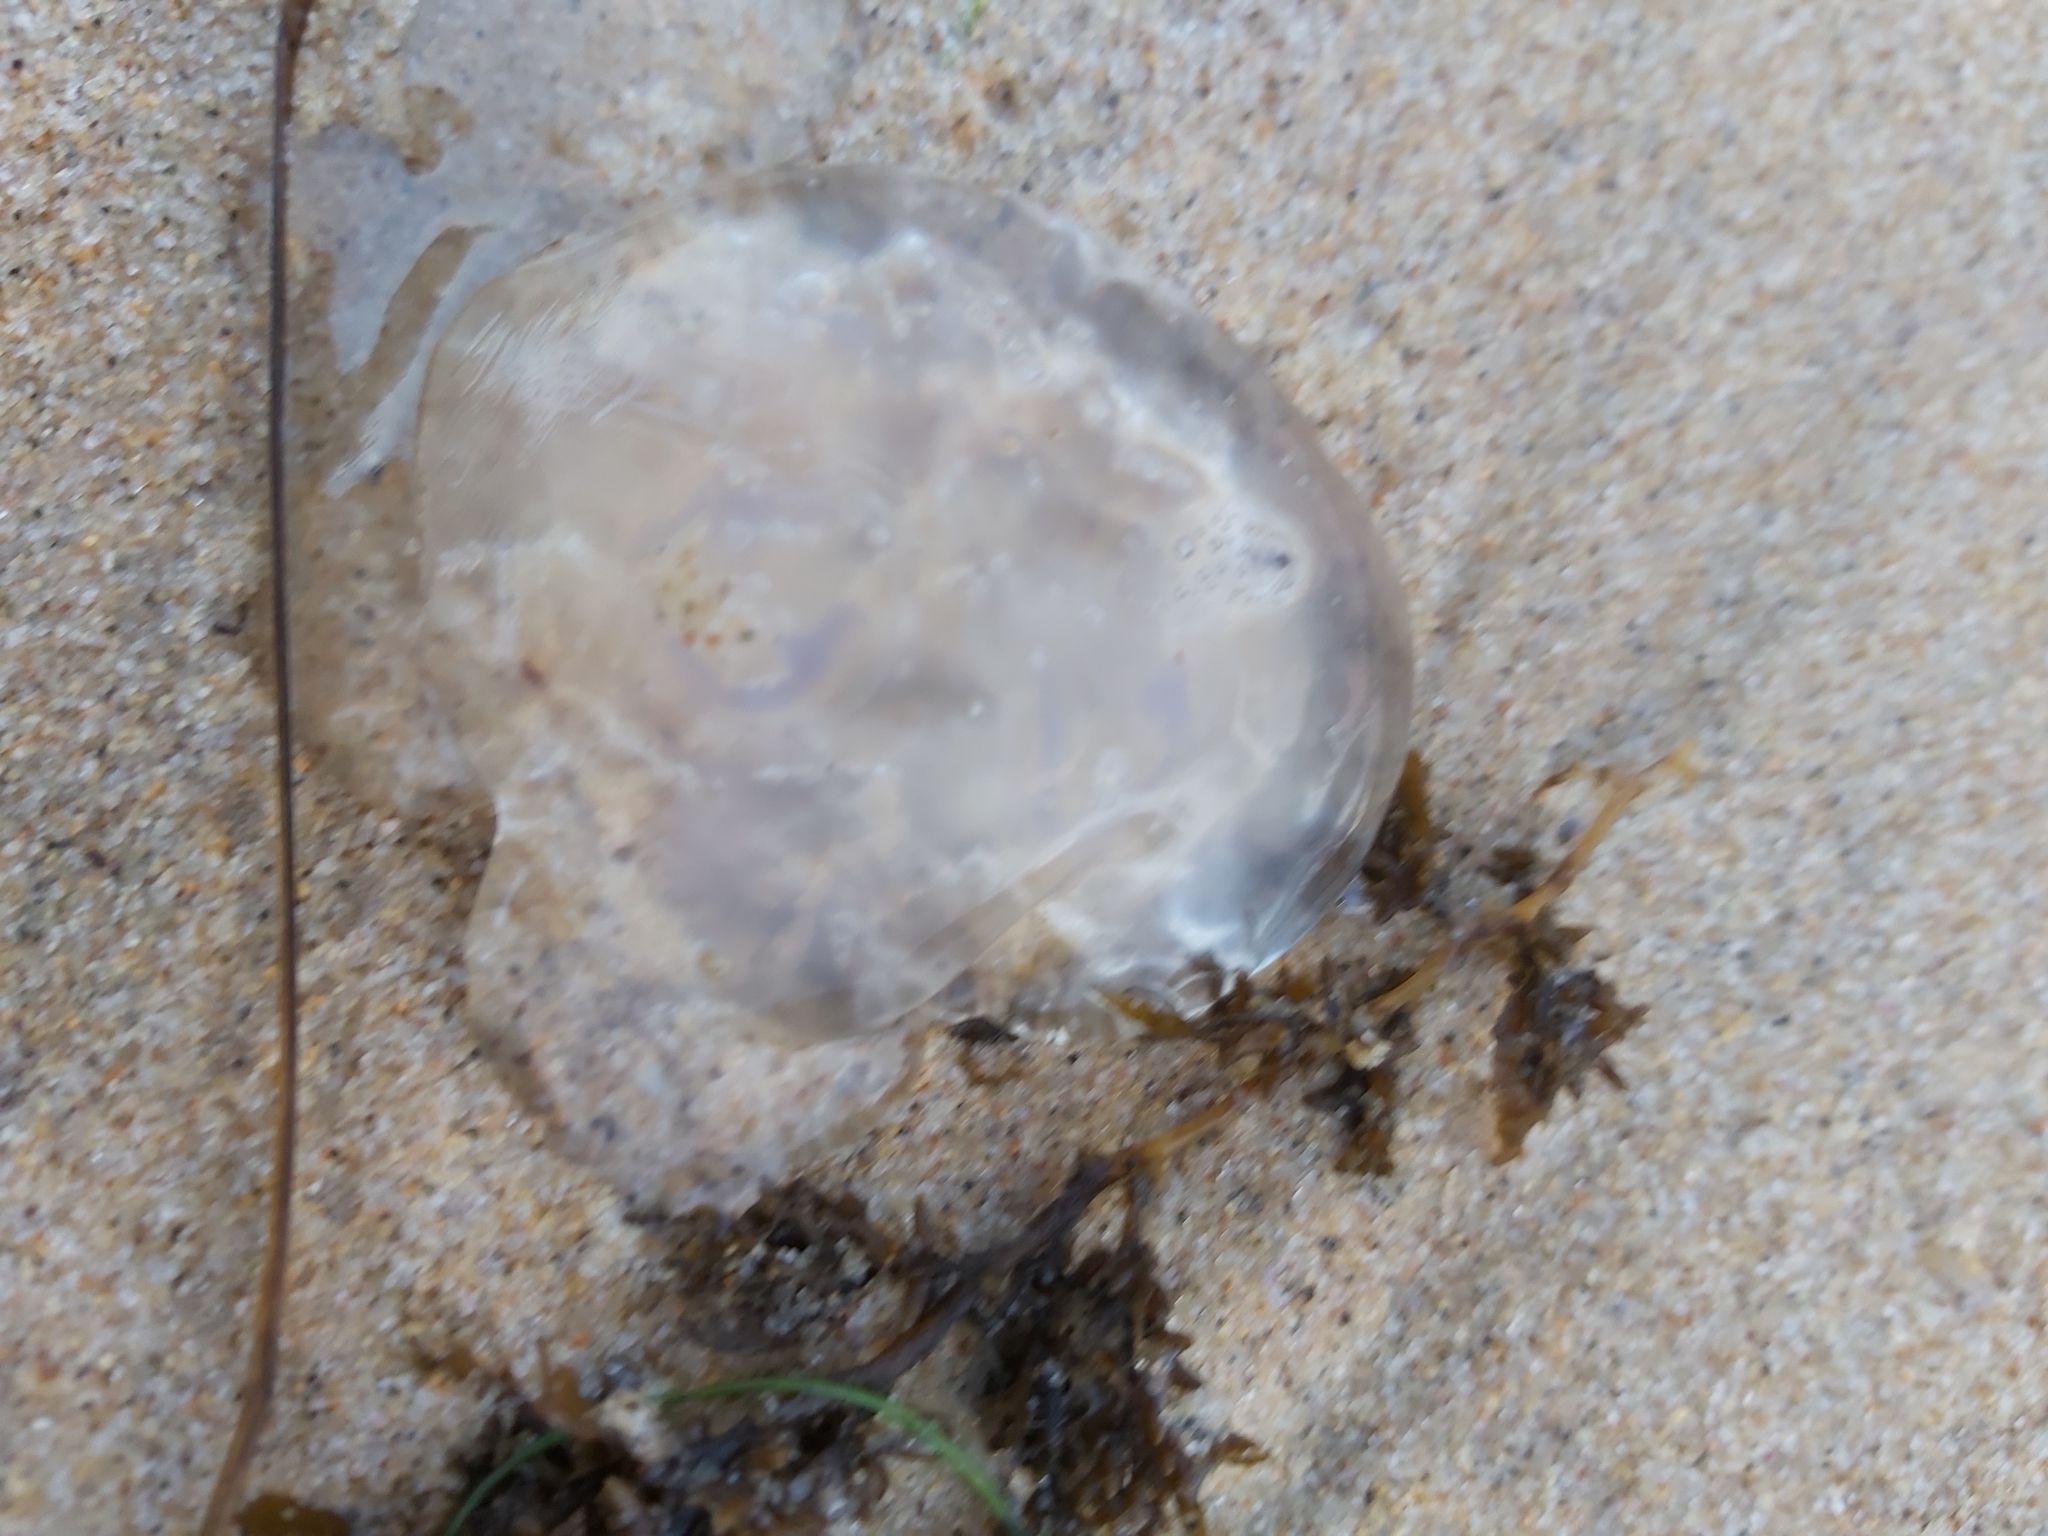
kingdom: Animalia
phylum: Cnidaria
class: Scyphozoa
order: Semaeostomeae
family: Ulmaridae
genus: Aurelia
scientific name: Aurelia
